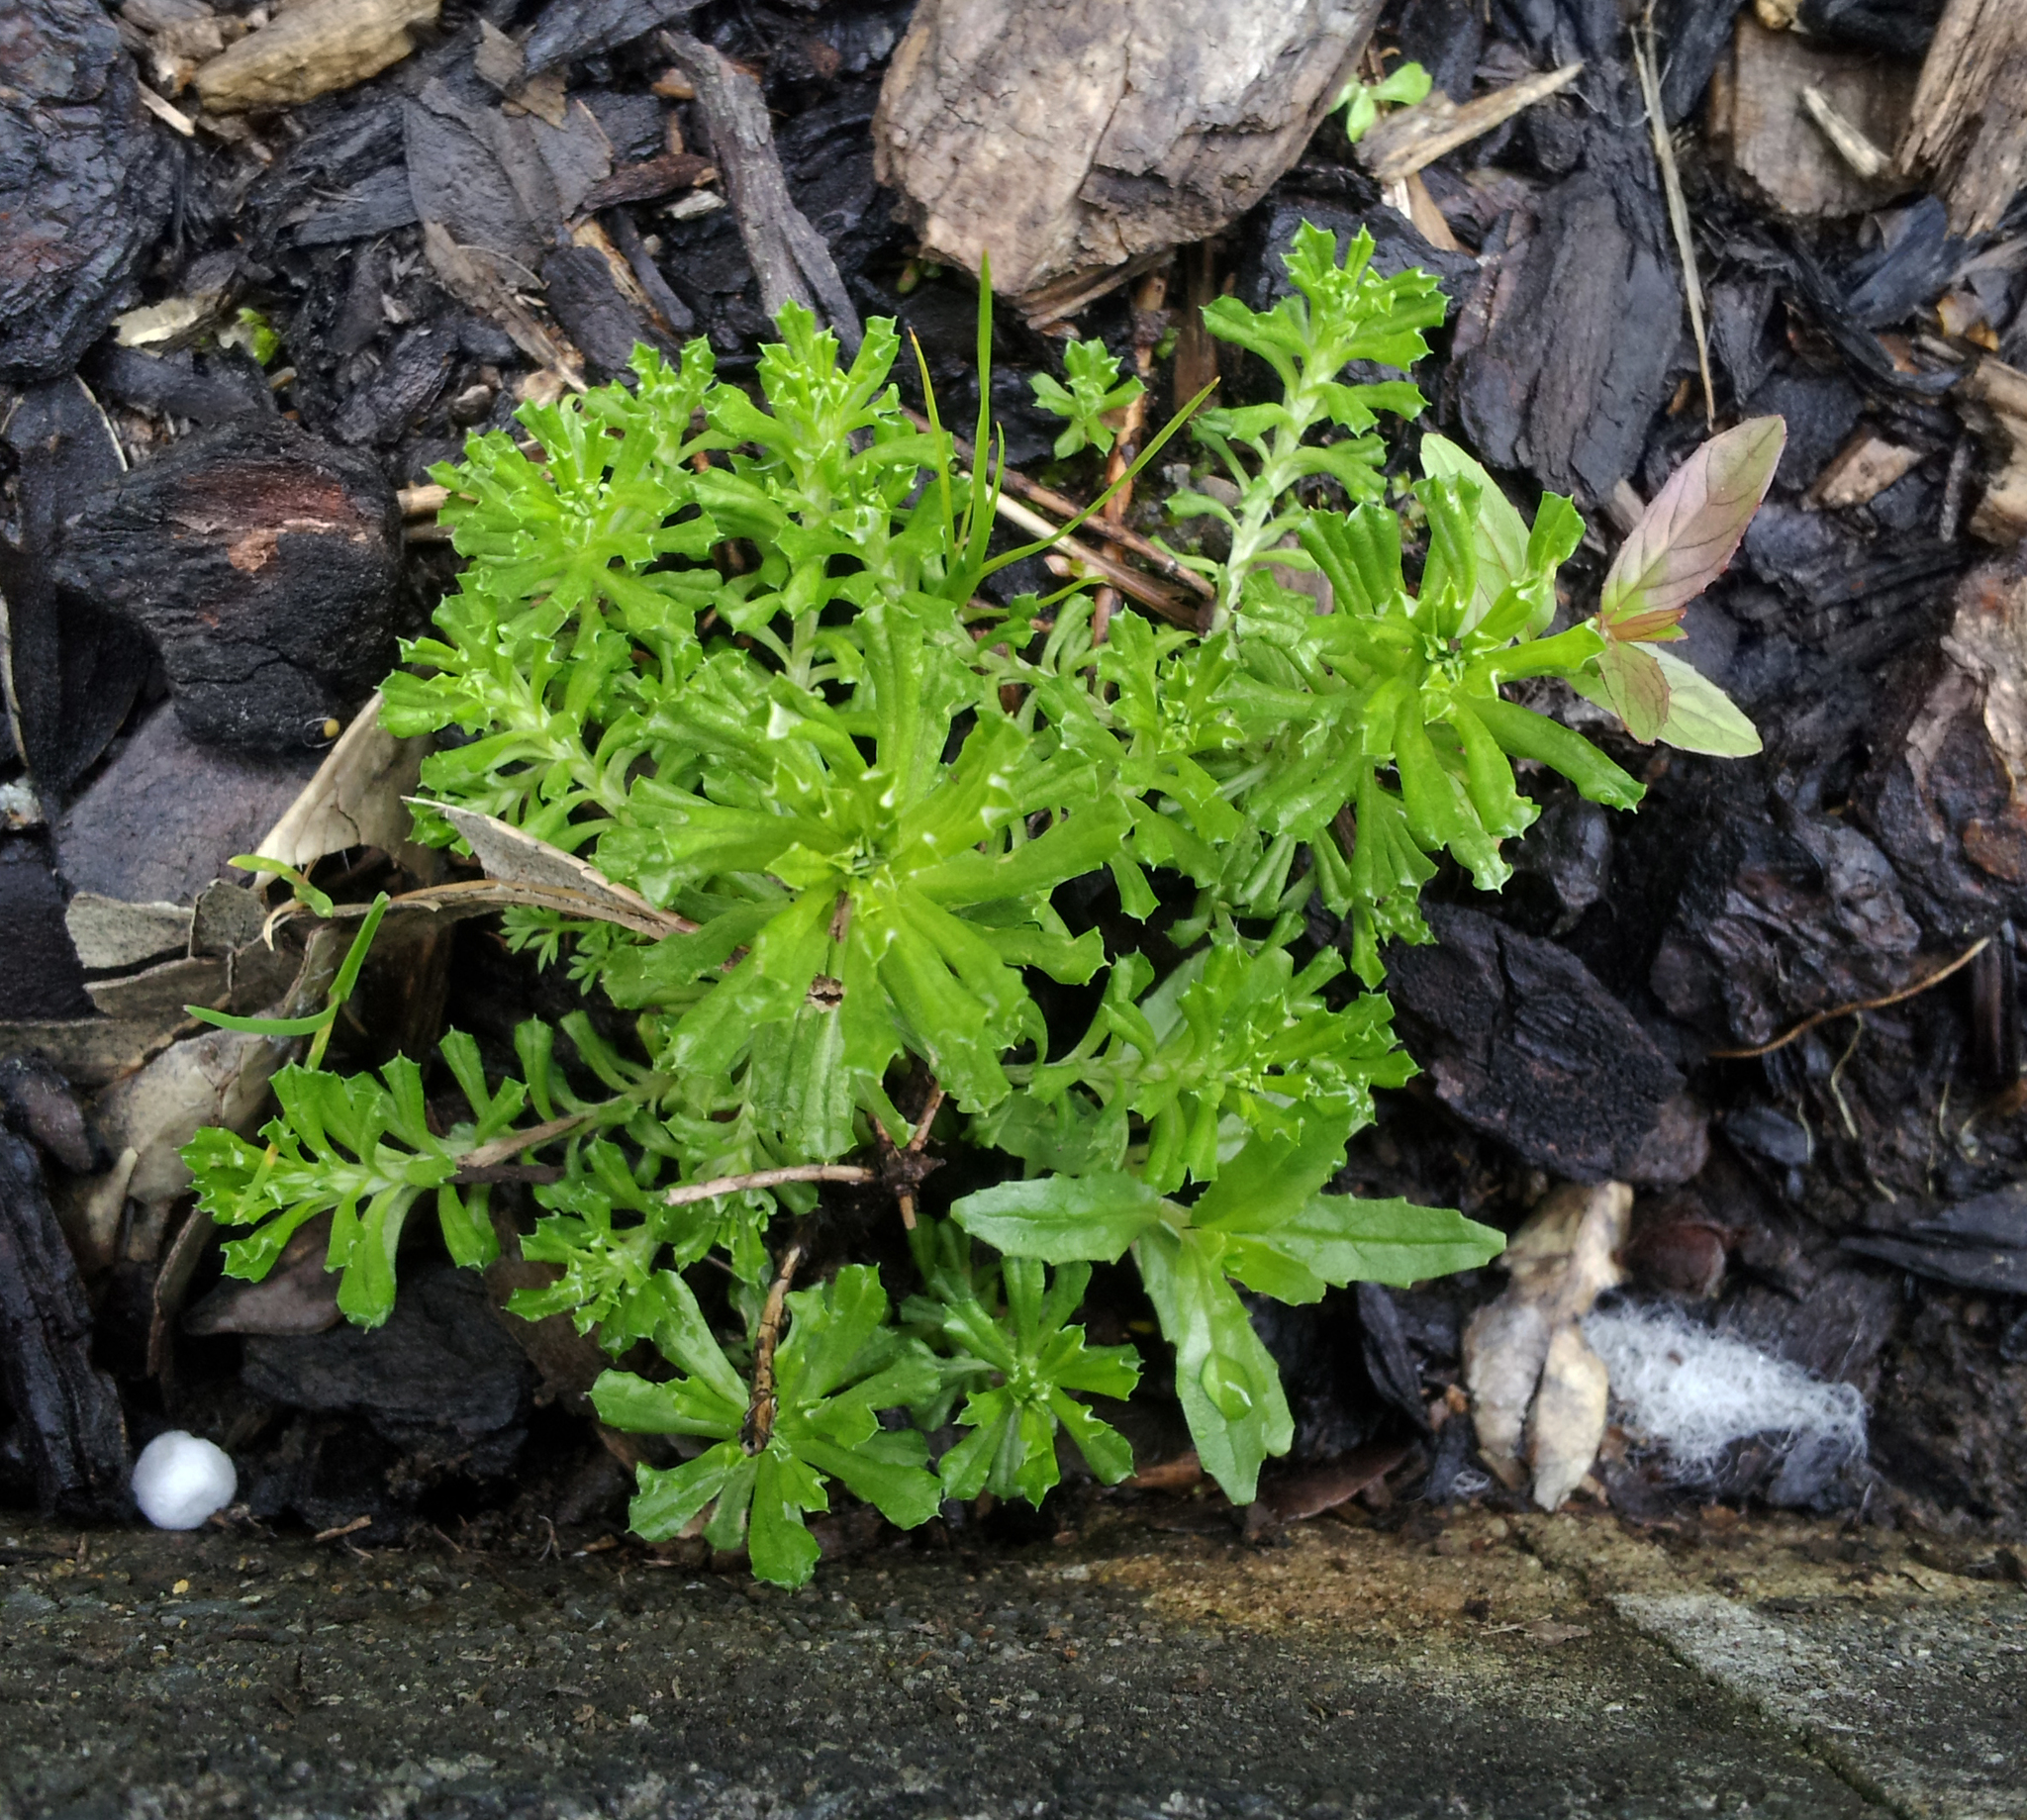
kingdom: Plantae
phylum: Tracheophyta
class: Magnoliopsida
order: Asterales
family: Asteraceae
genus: Facelis
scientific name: Facelis retusa
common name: Annual trampweed
